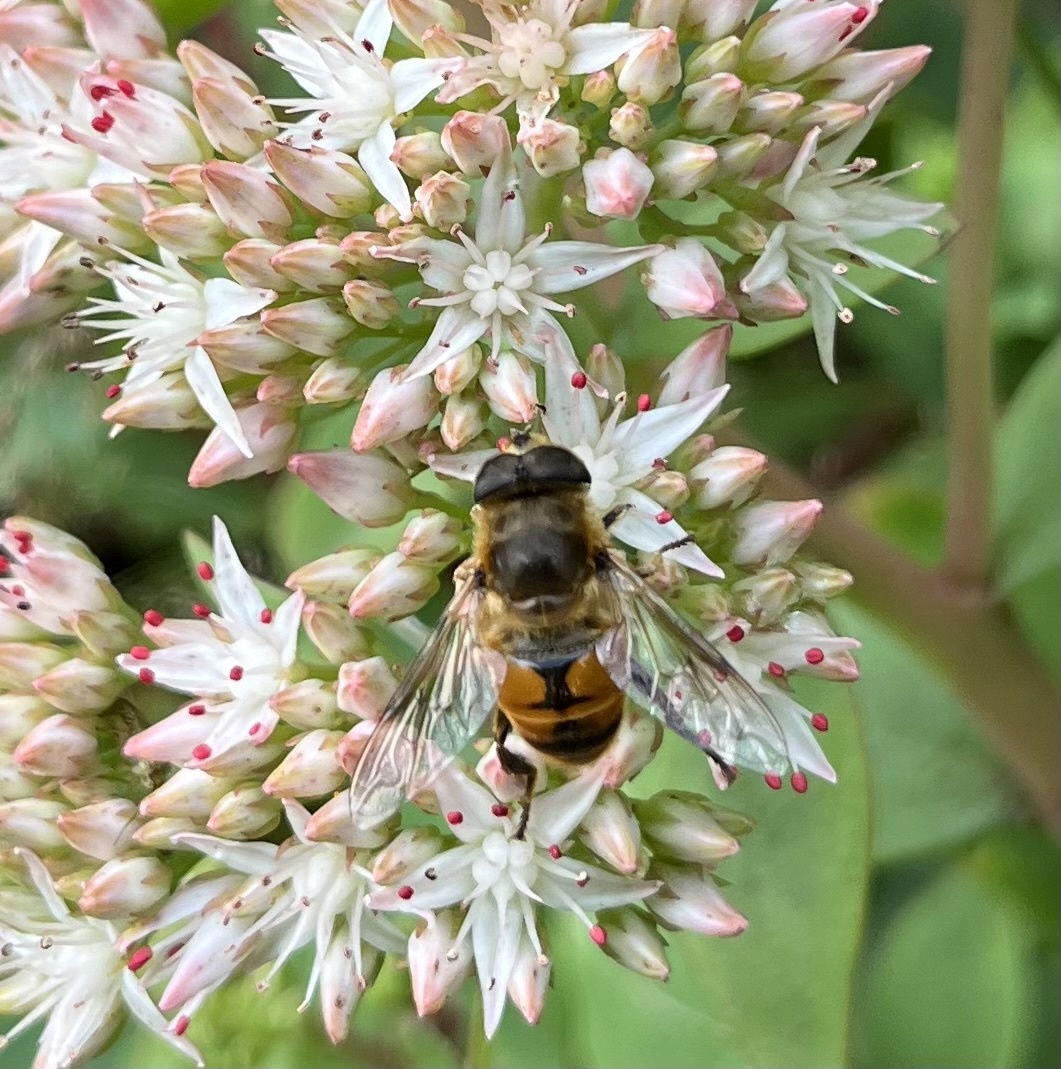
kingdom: Animalia
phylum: Arthropoda
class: Insecta
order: Diptera
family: Syrphidae
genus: Eristalis
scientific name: Eristalis tenax
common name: Drone fly
